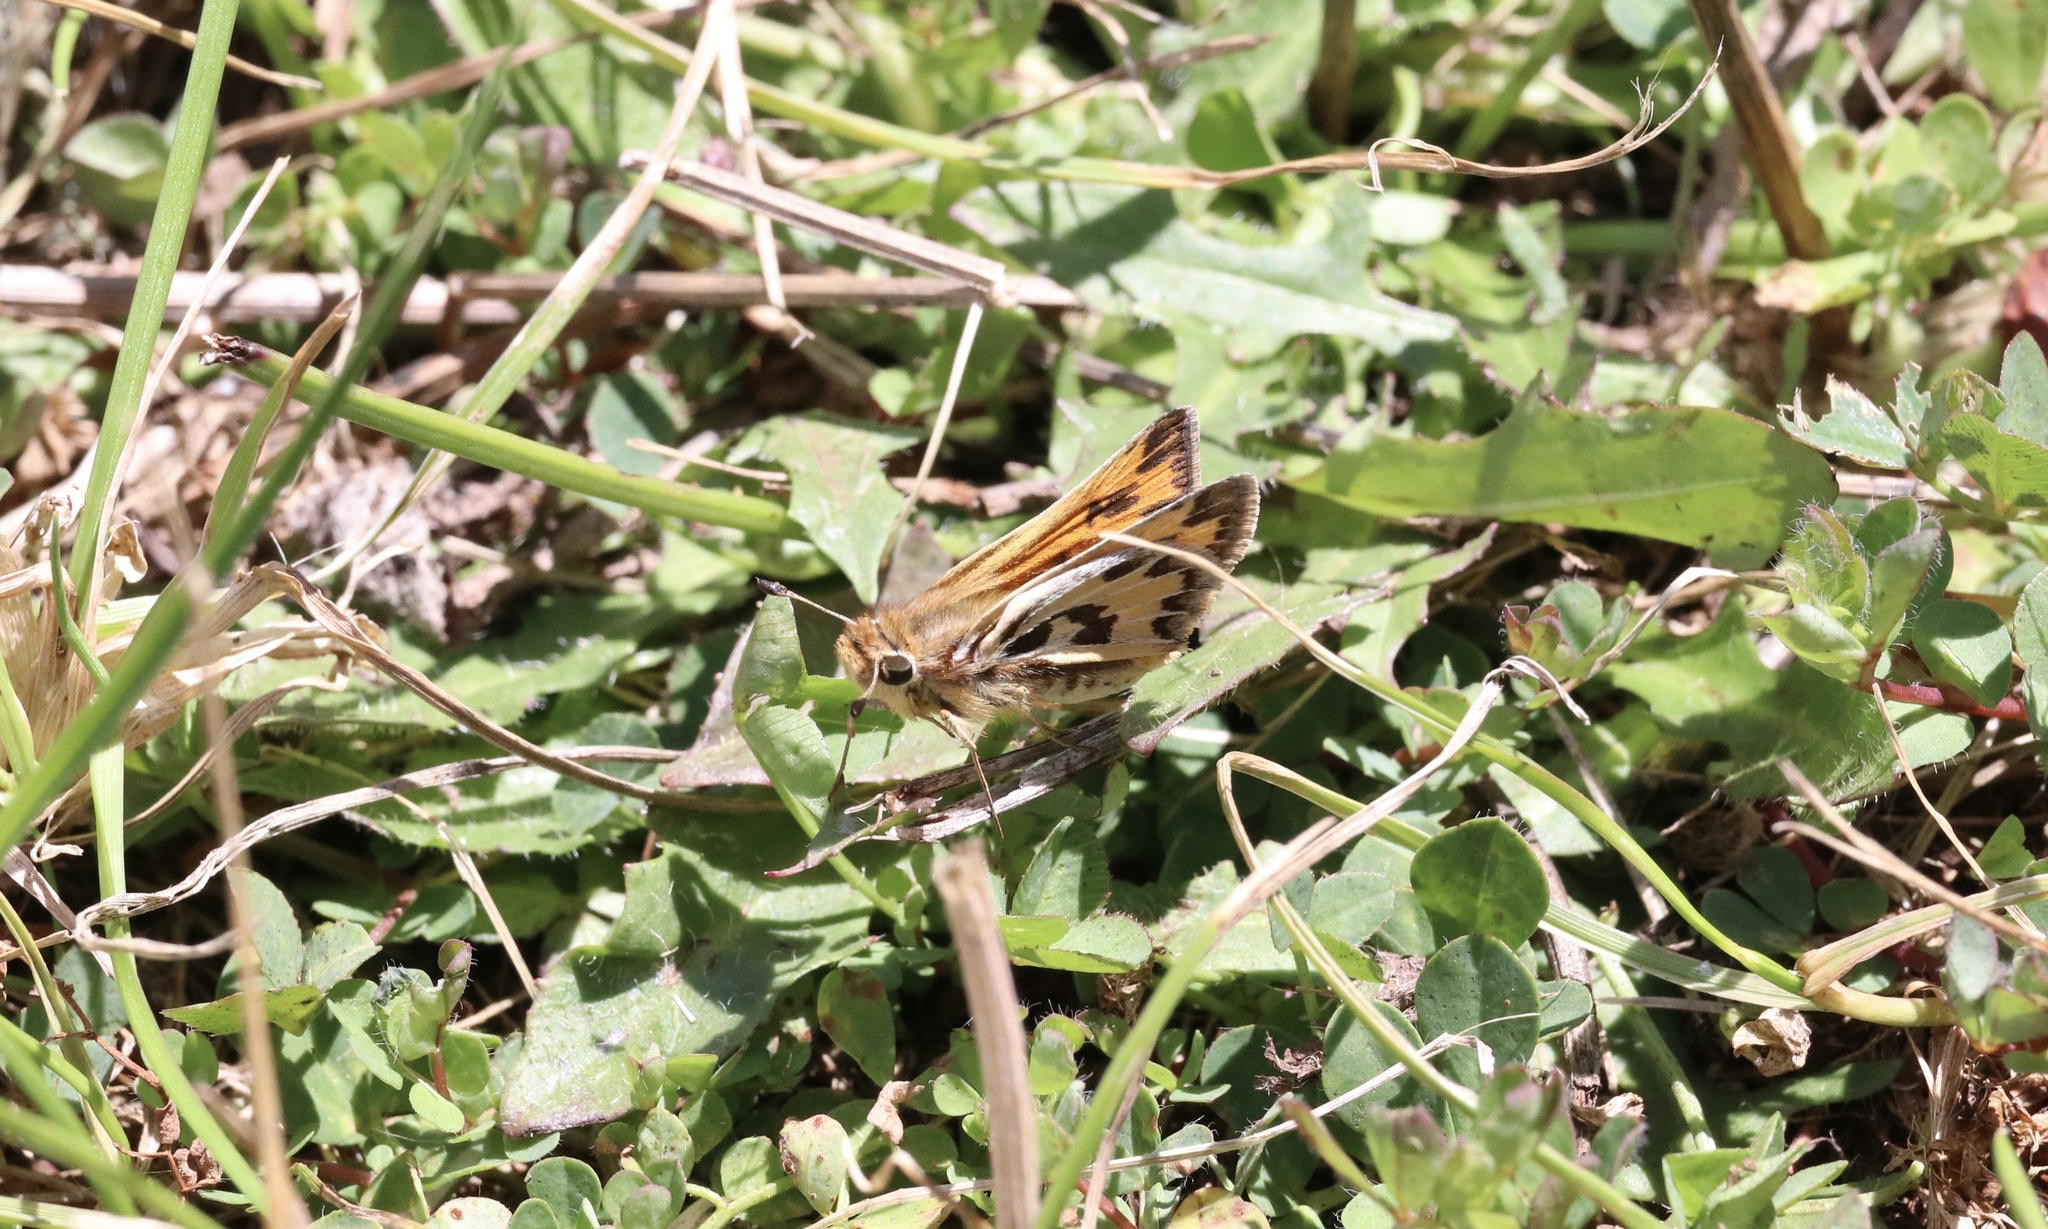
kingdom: Animalia
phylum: Arthropoda
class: Insecta
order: Lepidoptera
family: Hesperiidae
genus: Hylephila
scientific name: Hylephila fasciolata
